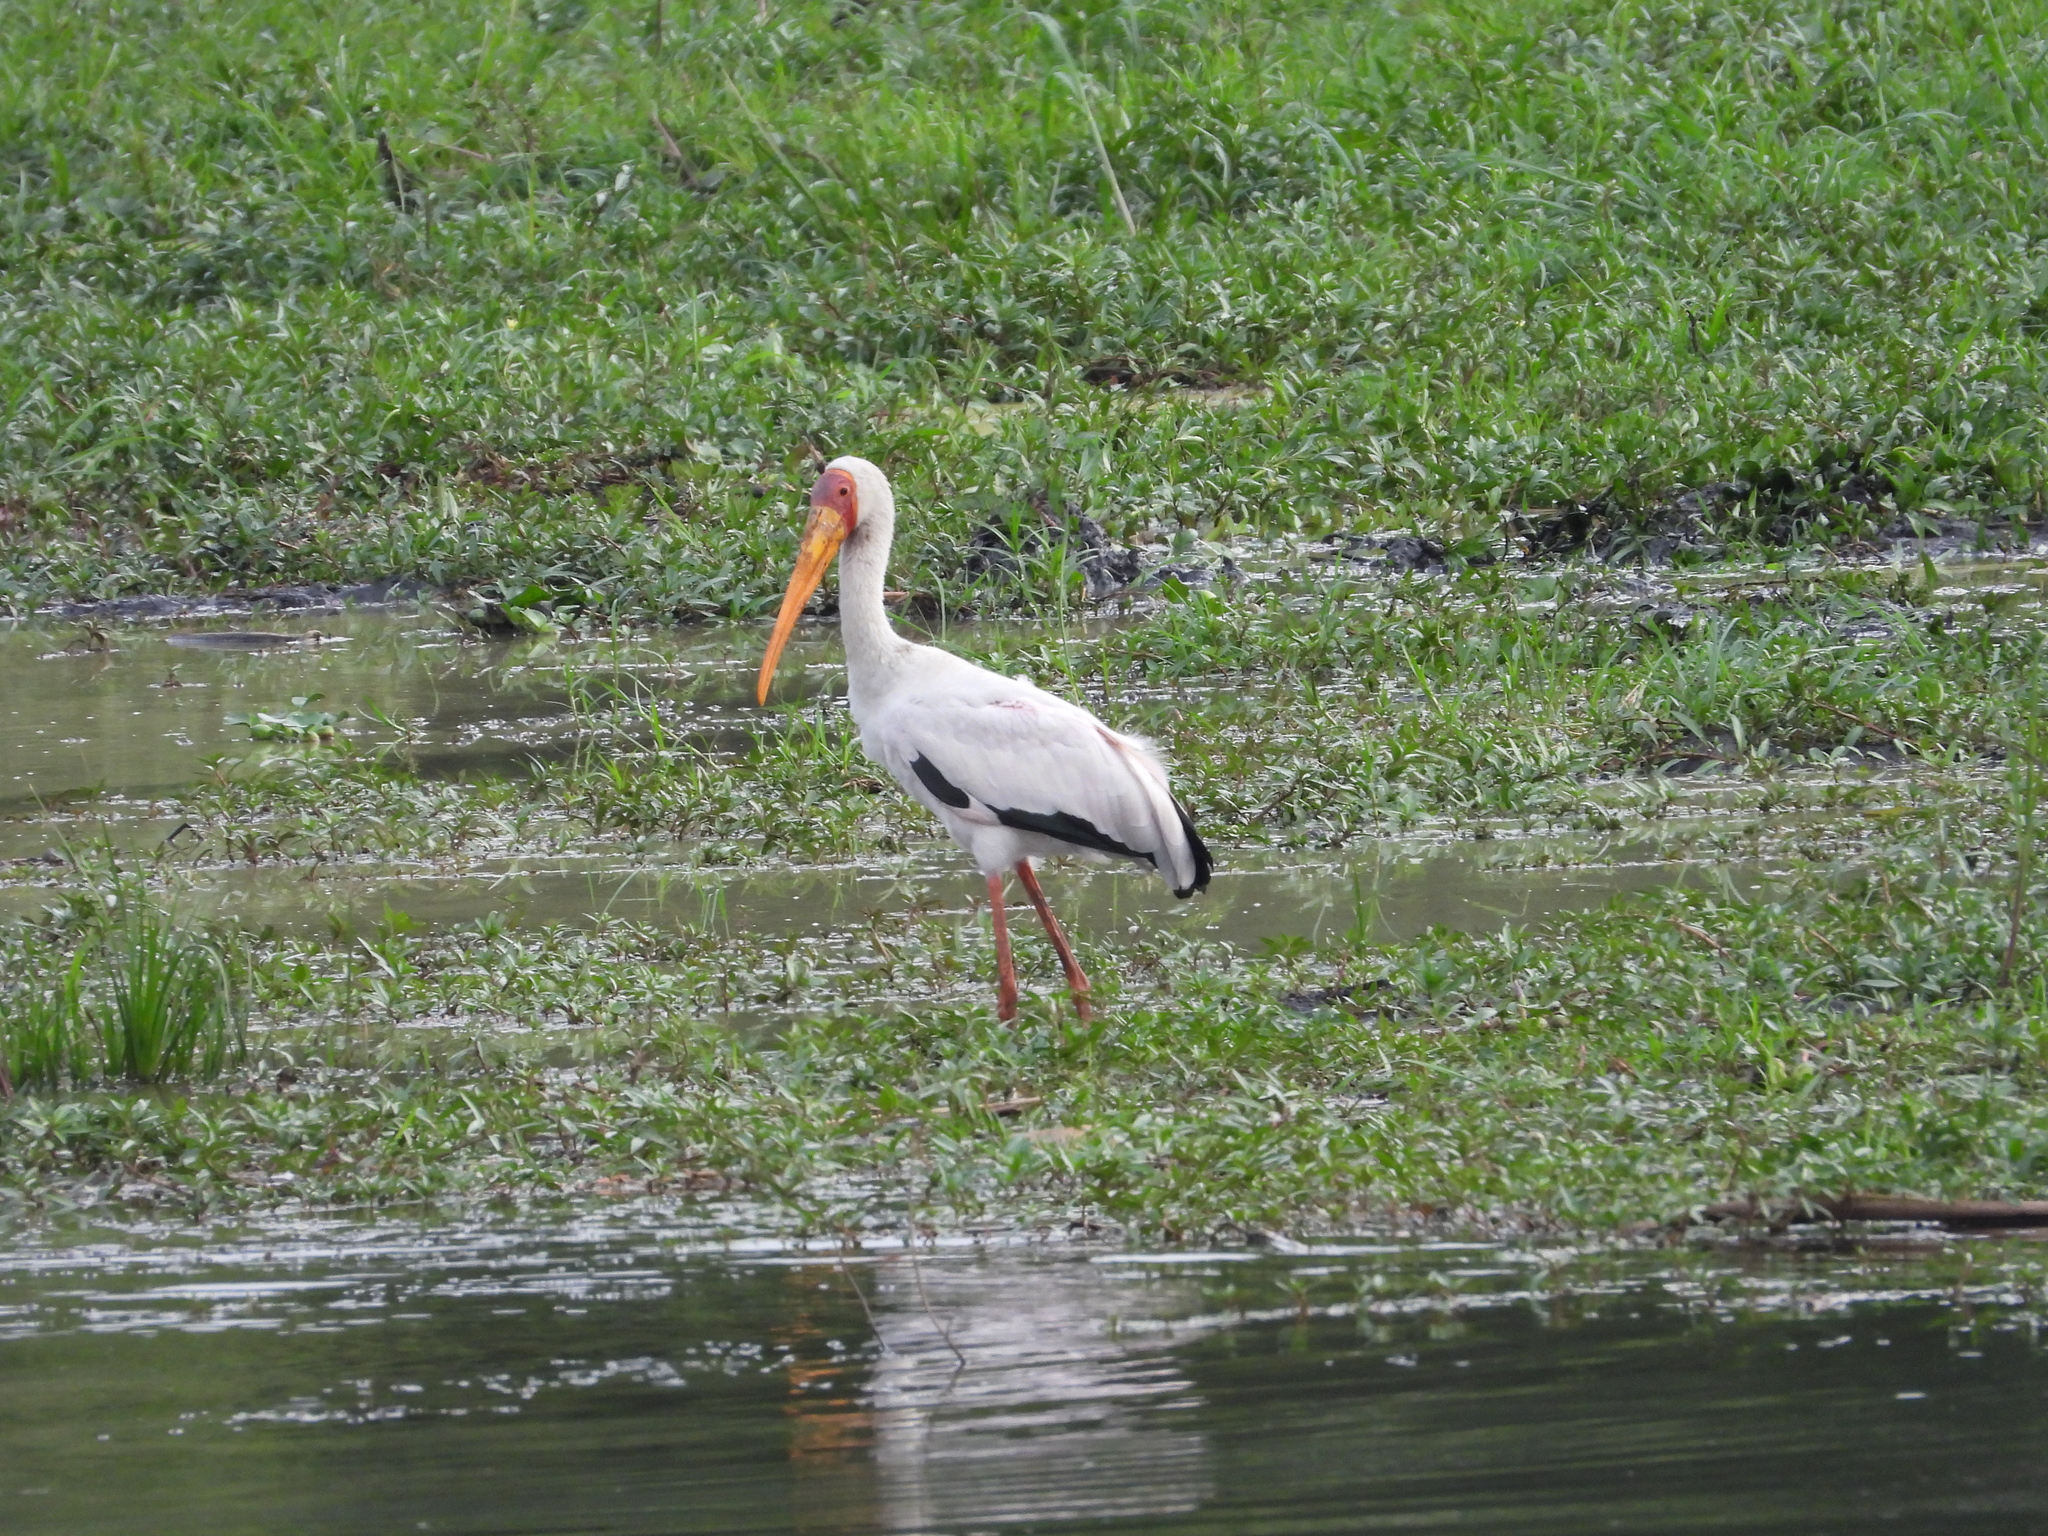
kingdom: Animalia
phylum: Chordata
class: Aves
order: Ciconiiformes
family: Ciconiidae
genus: Mycteria
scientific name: Mycteria ibis
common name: Yellow-billed stork
